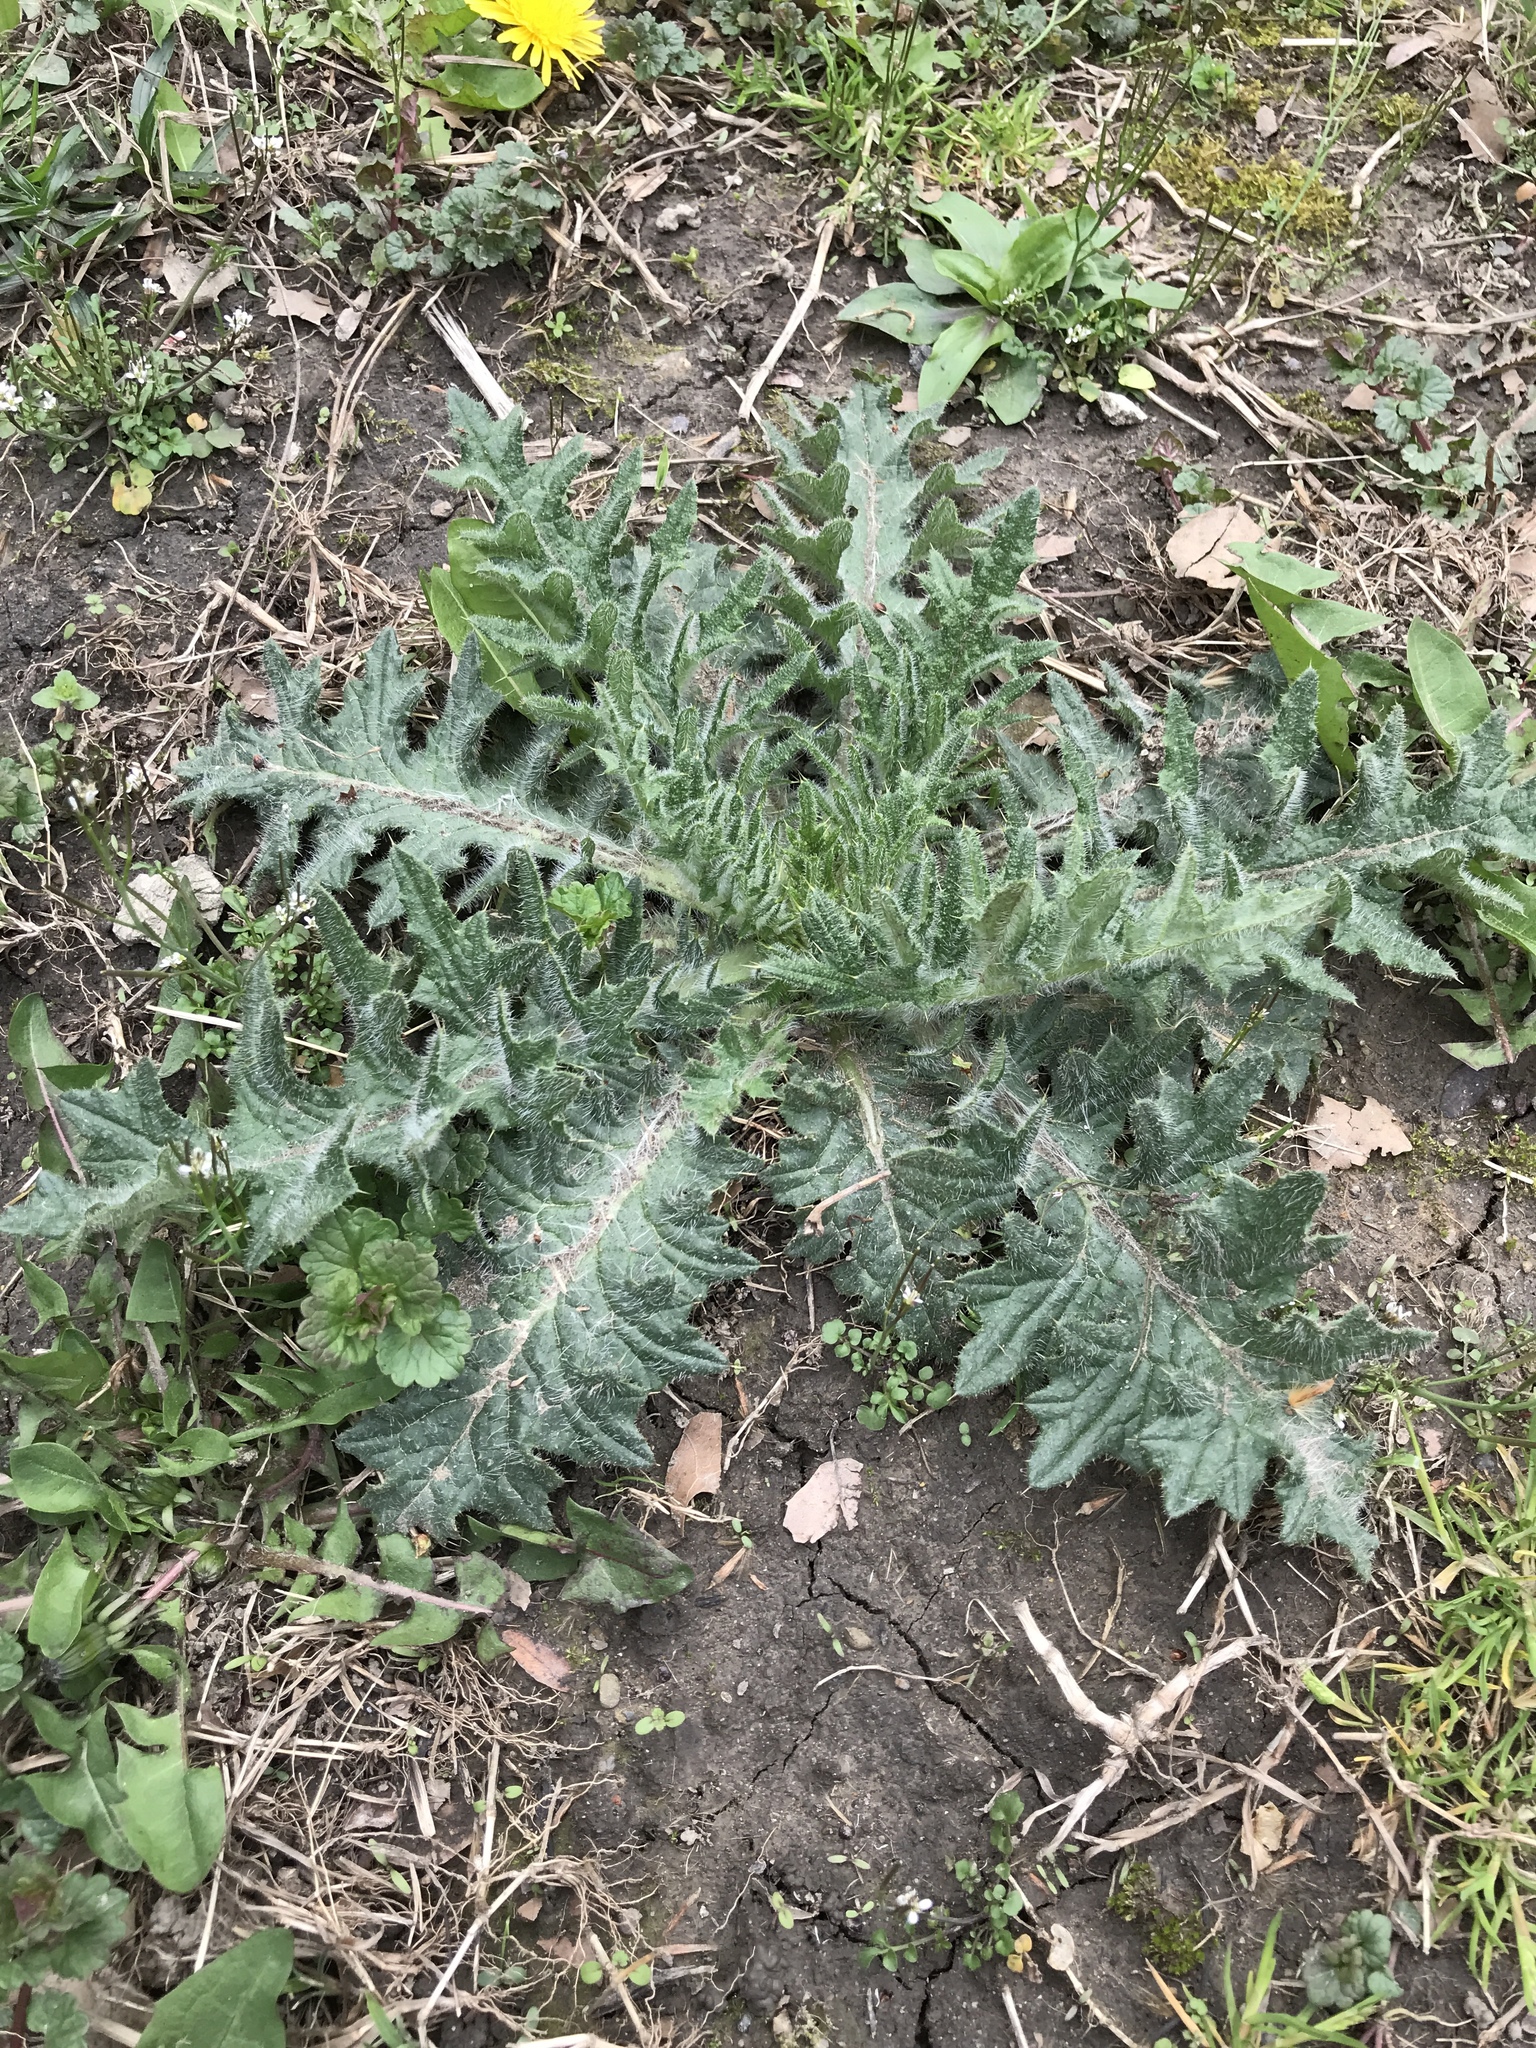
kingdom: Plantae
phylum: Tracheophyta
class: Magnoliopsida
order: Asterales
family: Asteraceae
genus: Cirsium
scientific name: Cirsium vulgare
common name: Bull thistle
